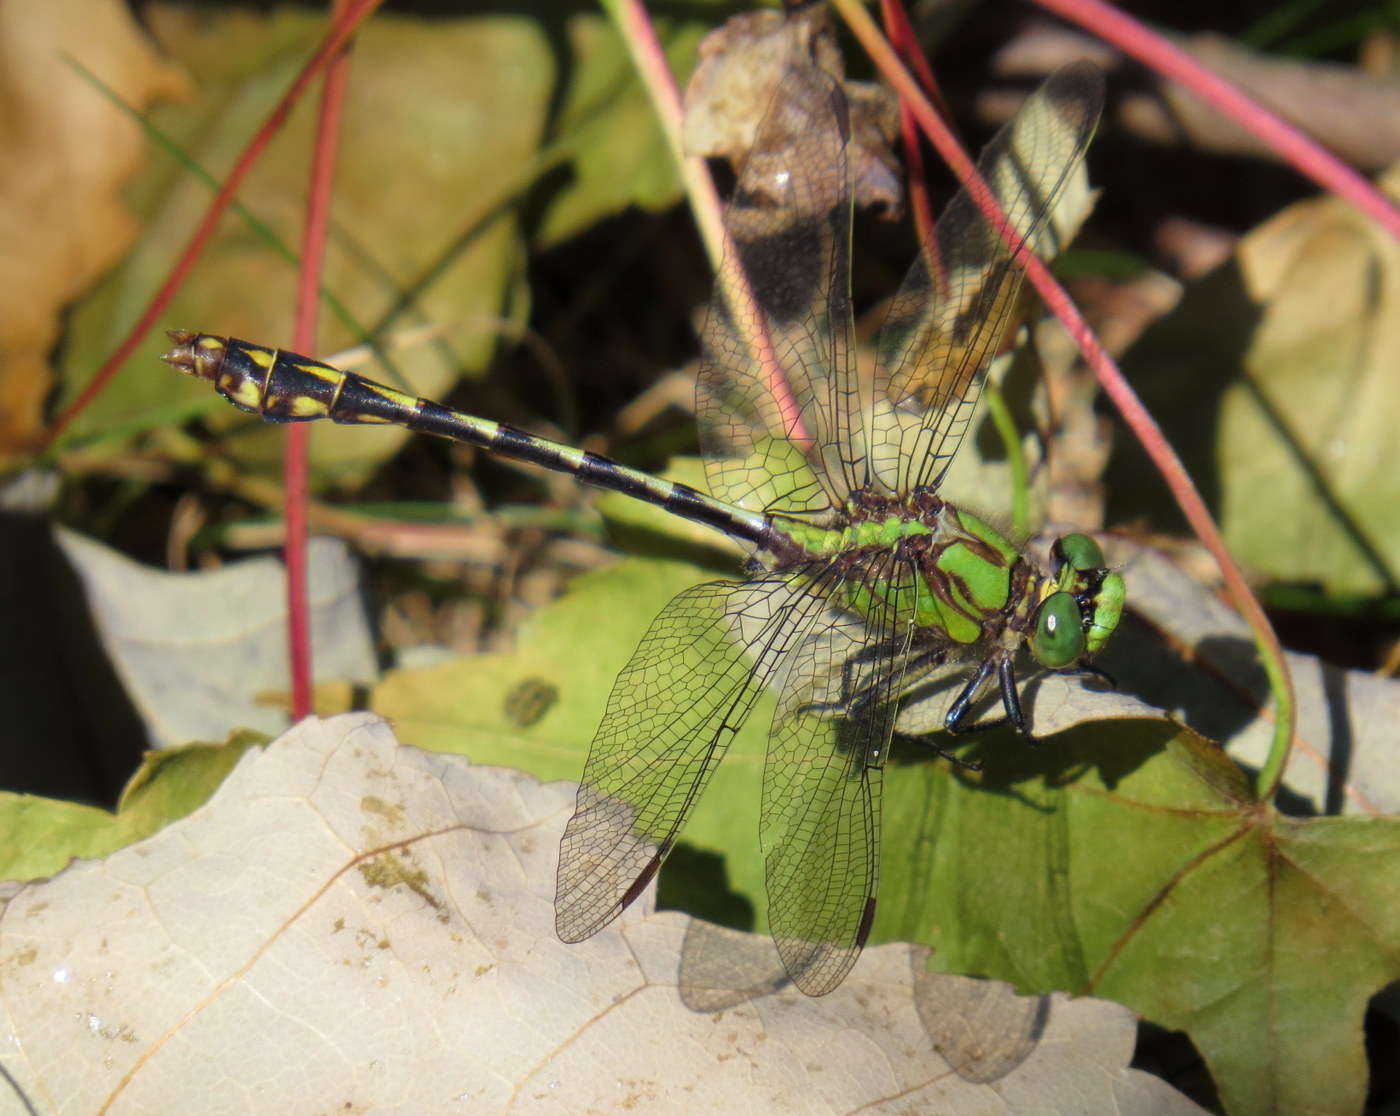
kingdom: Animalia
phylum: Arthropoda
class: Insecta
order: Odonata
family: Gomphidae
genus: Ophiogomphus
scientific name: Ophiogomphus aspersus
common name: Brook snaketail
